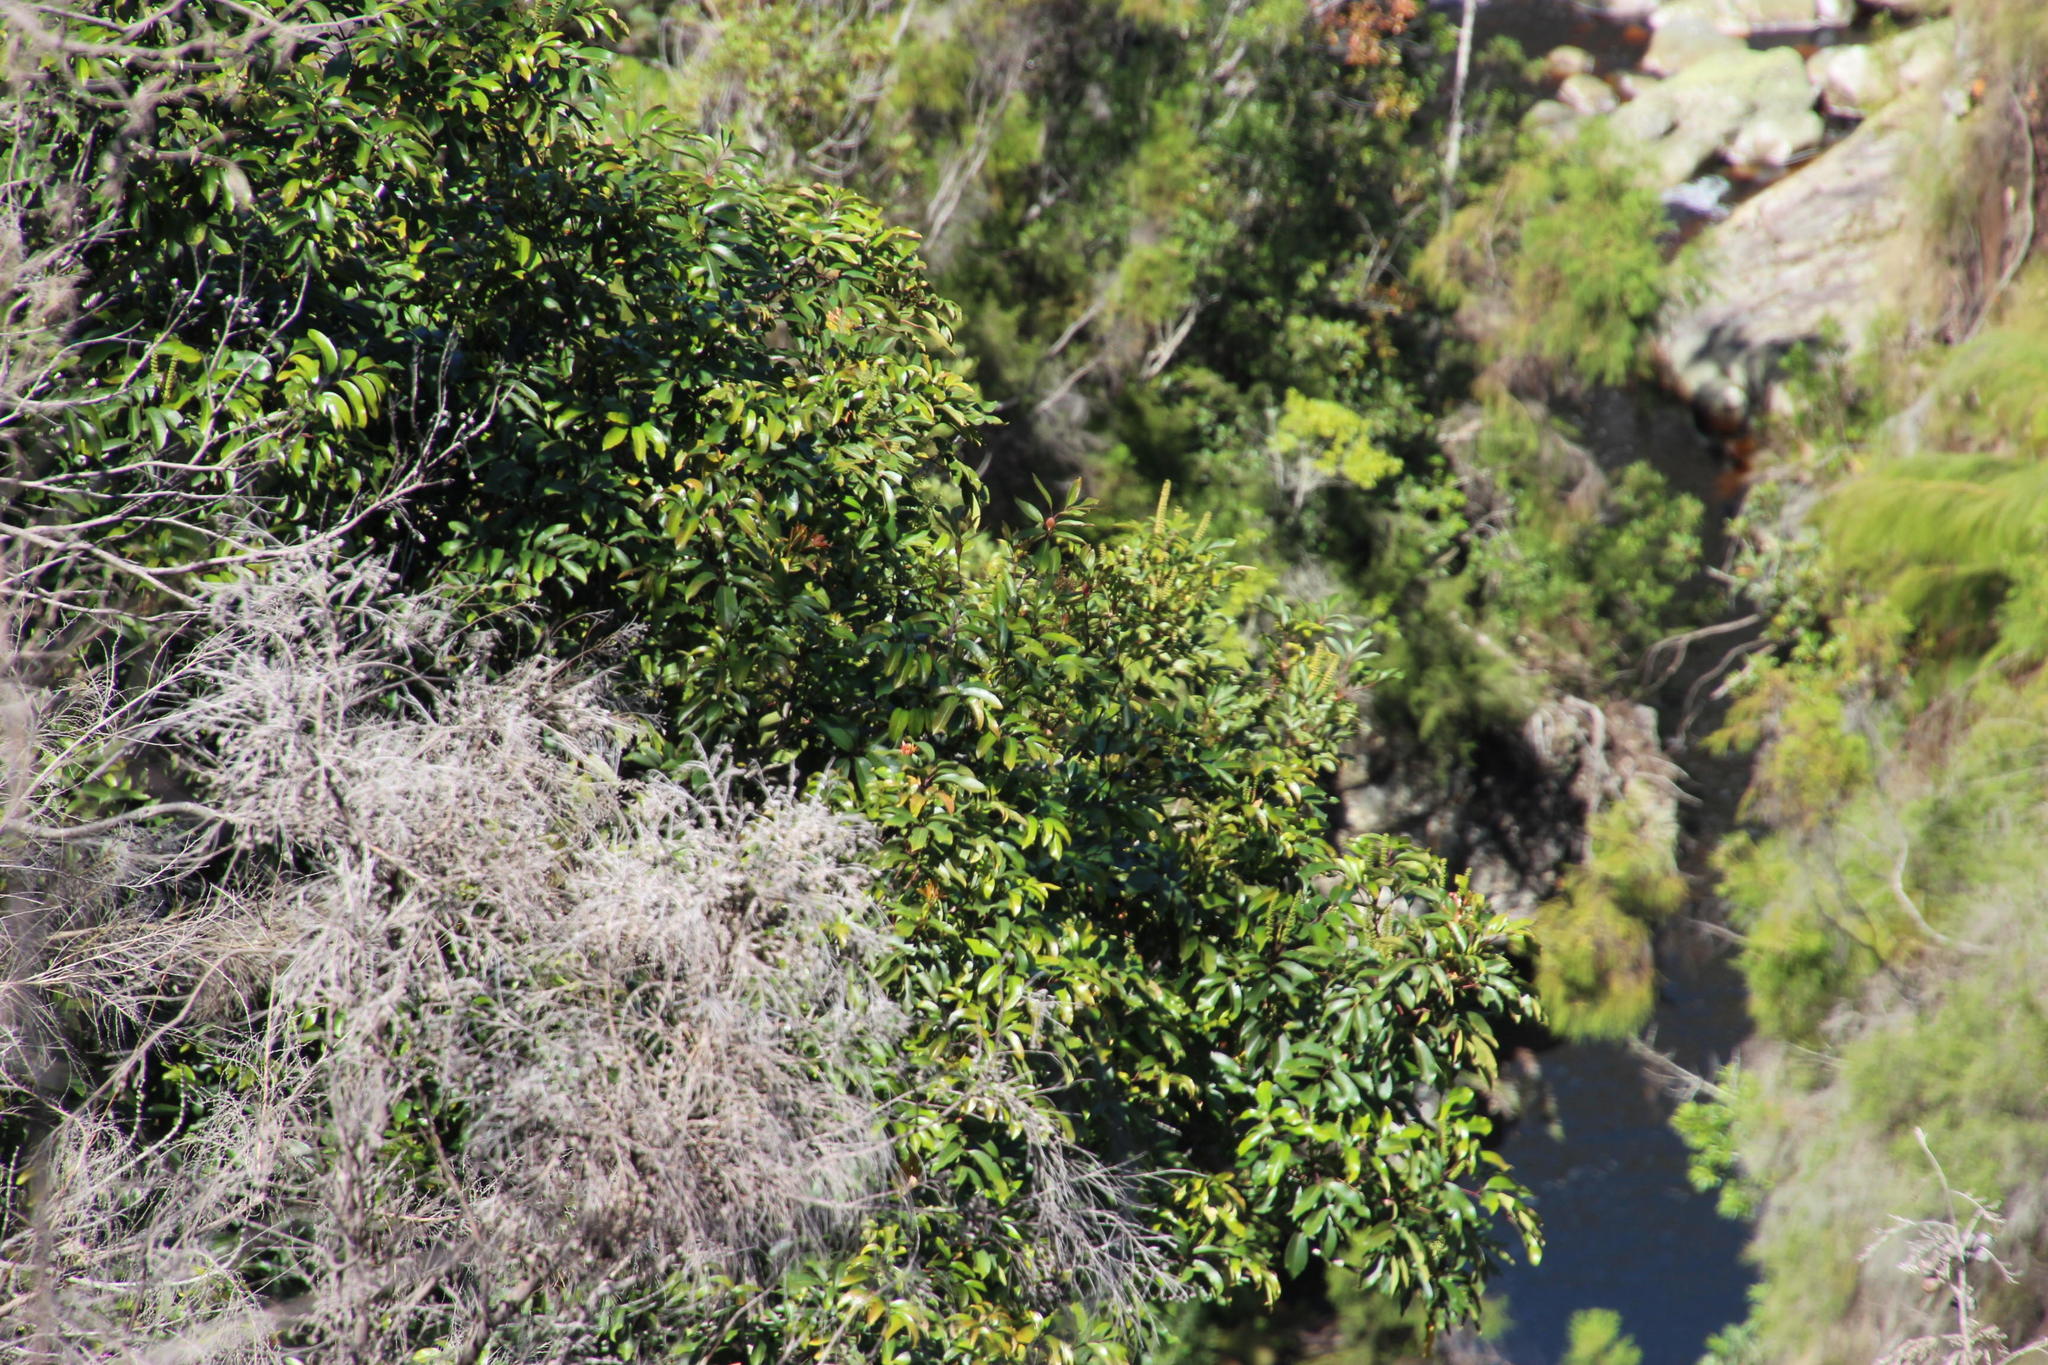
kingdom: Plantae
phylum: Tracheophyta
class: Magnoliopsida
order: Oxalidales
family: Cunoniaceae
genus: Cunonia
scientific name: Cunonia capensis
